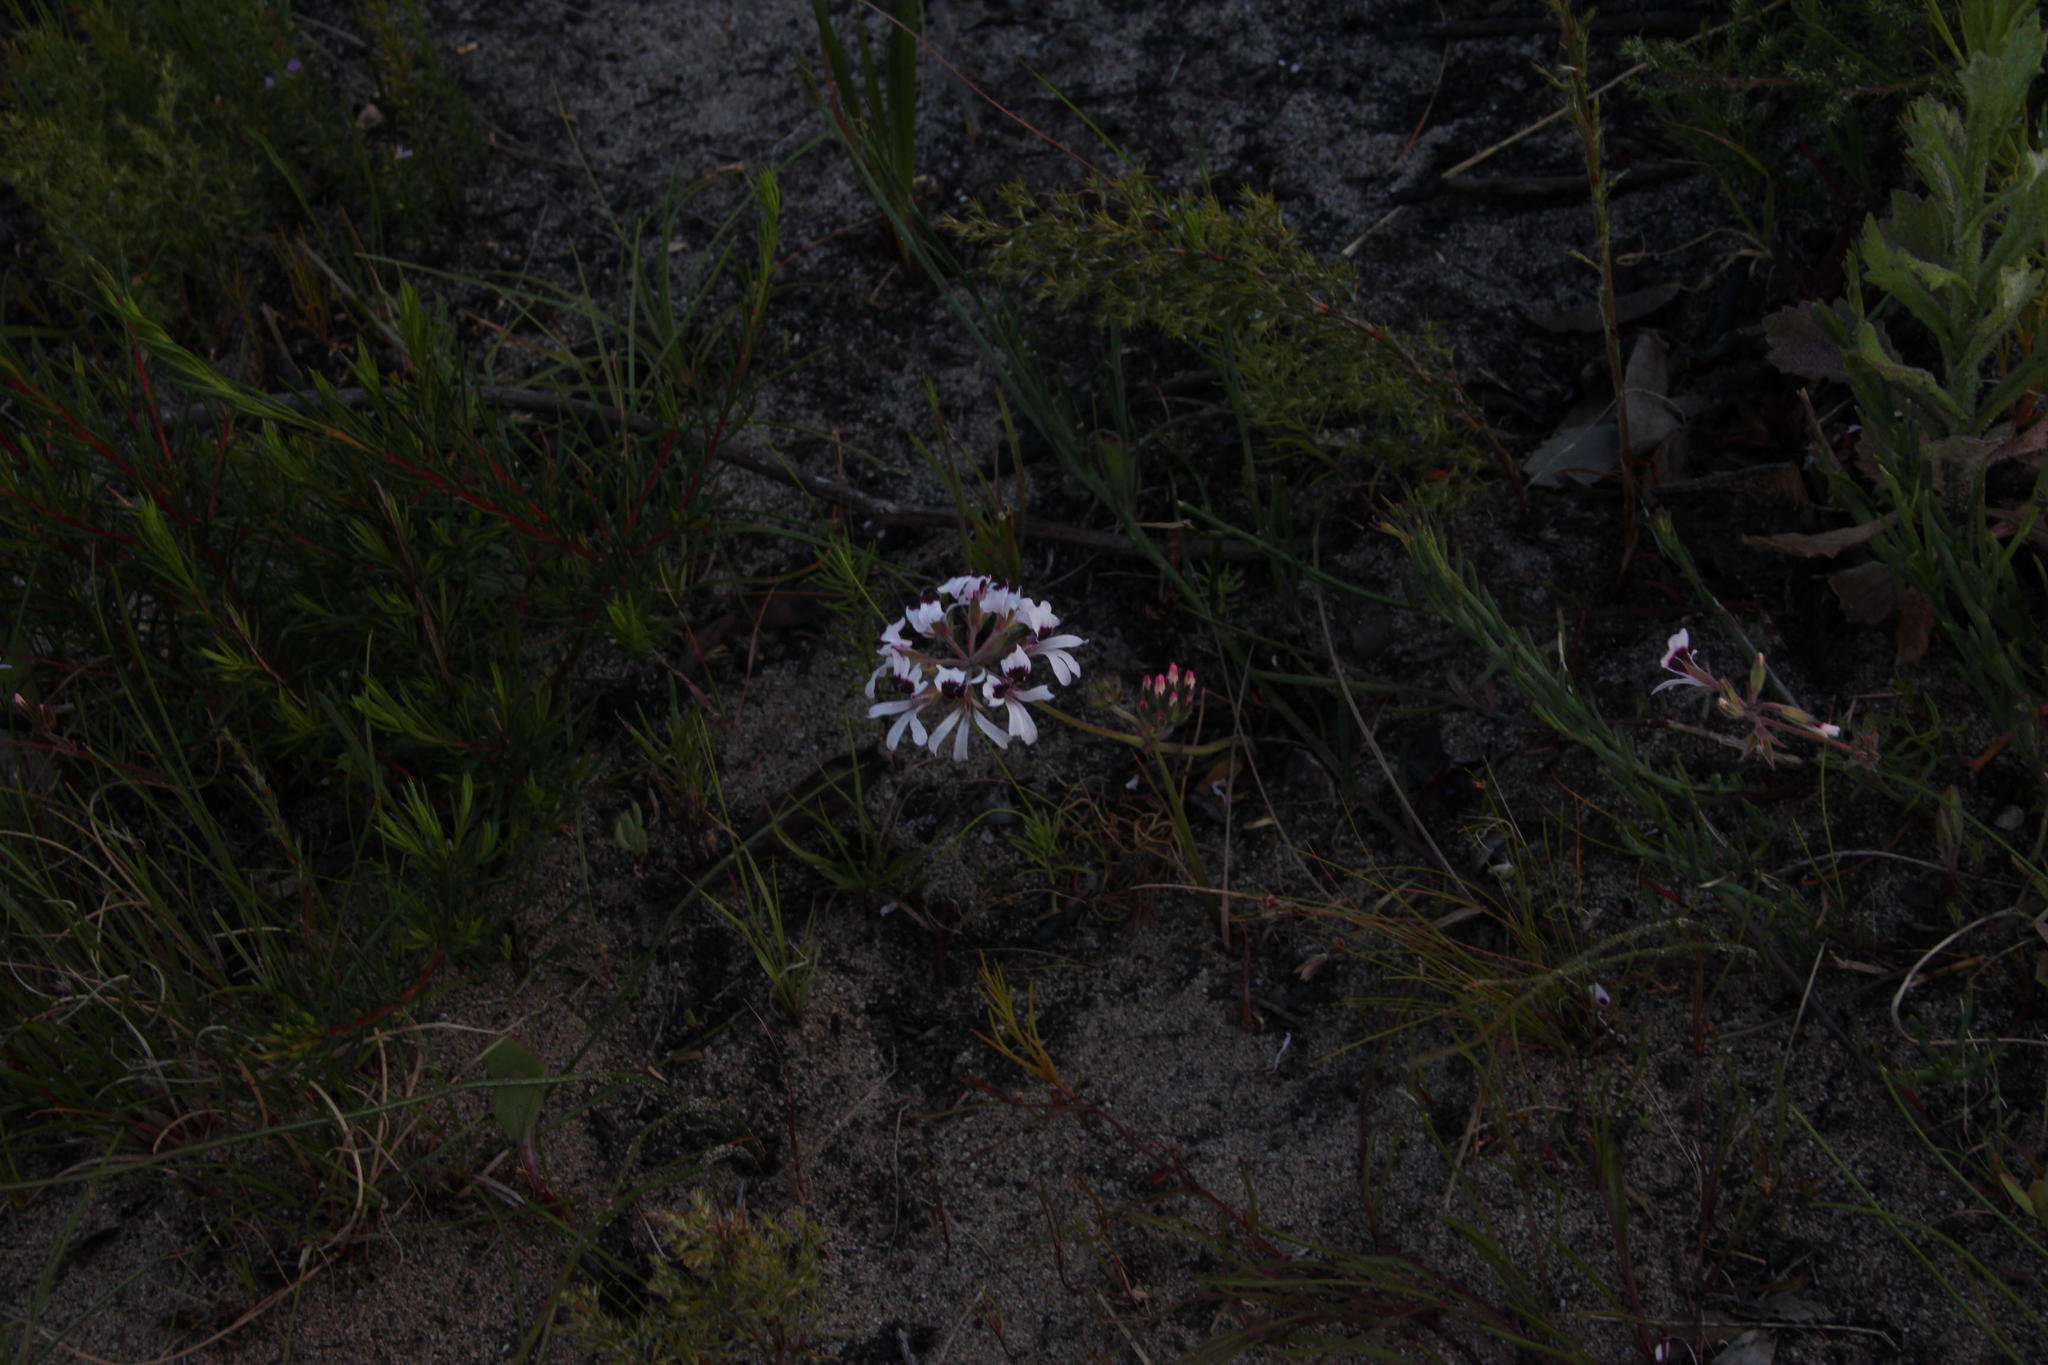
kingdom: Plantae
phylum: Tracheophyta
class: Magnoliopsida
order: Geraniales
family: Geraniaceae
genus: Pelargonium
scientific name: Pelargonium psammophilum
